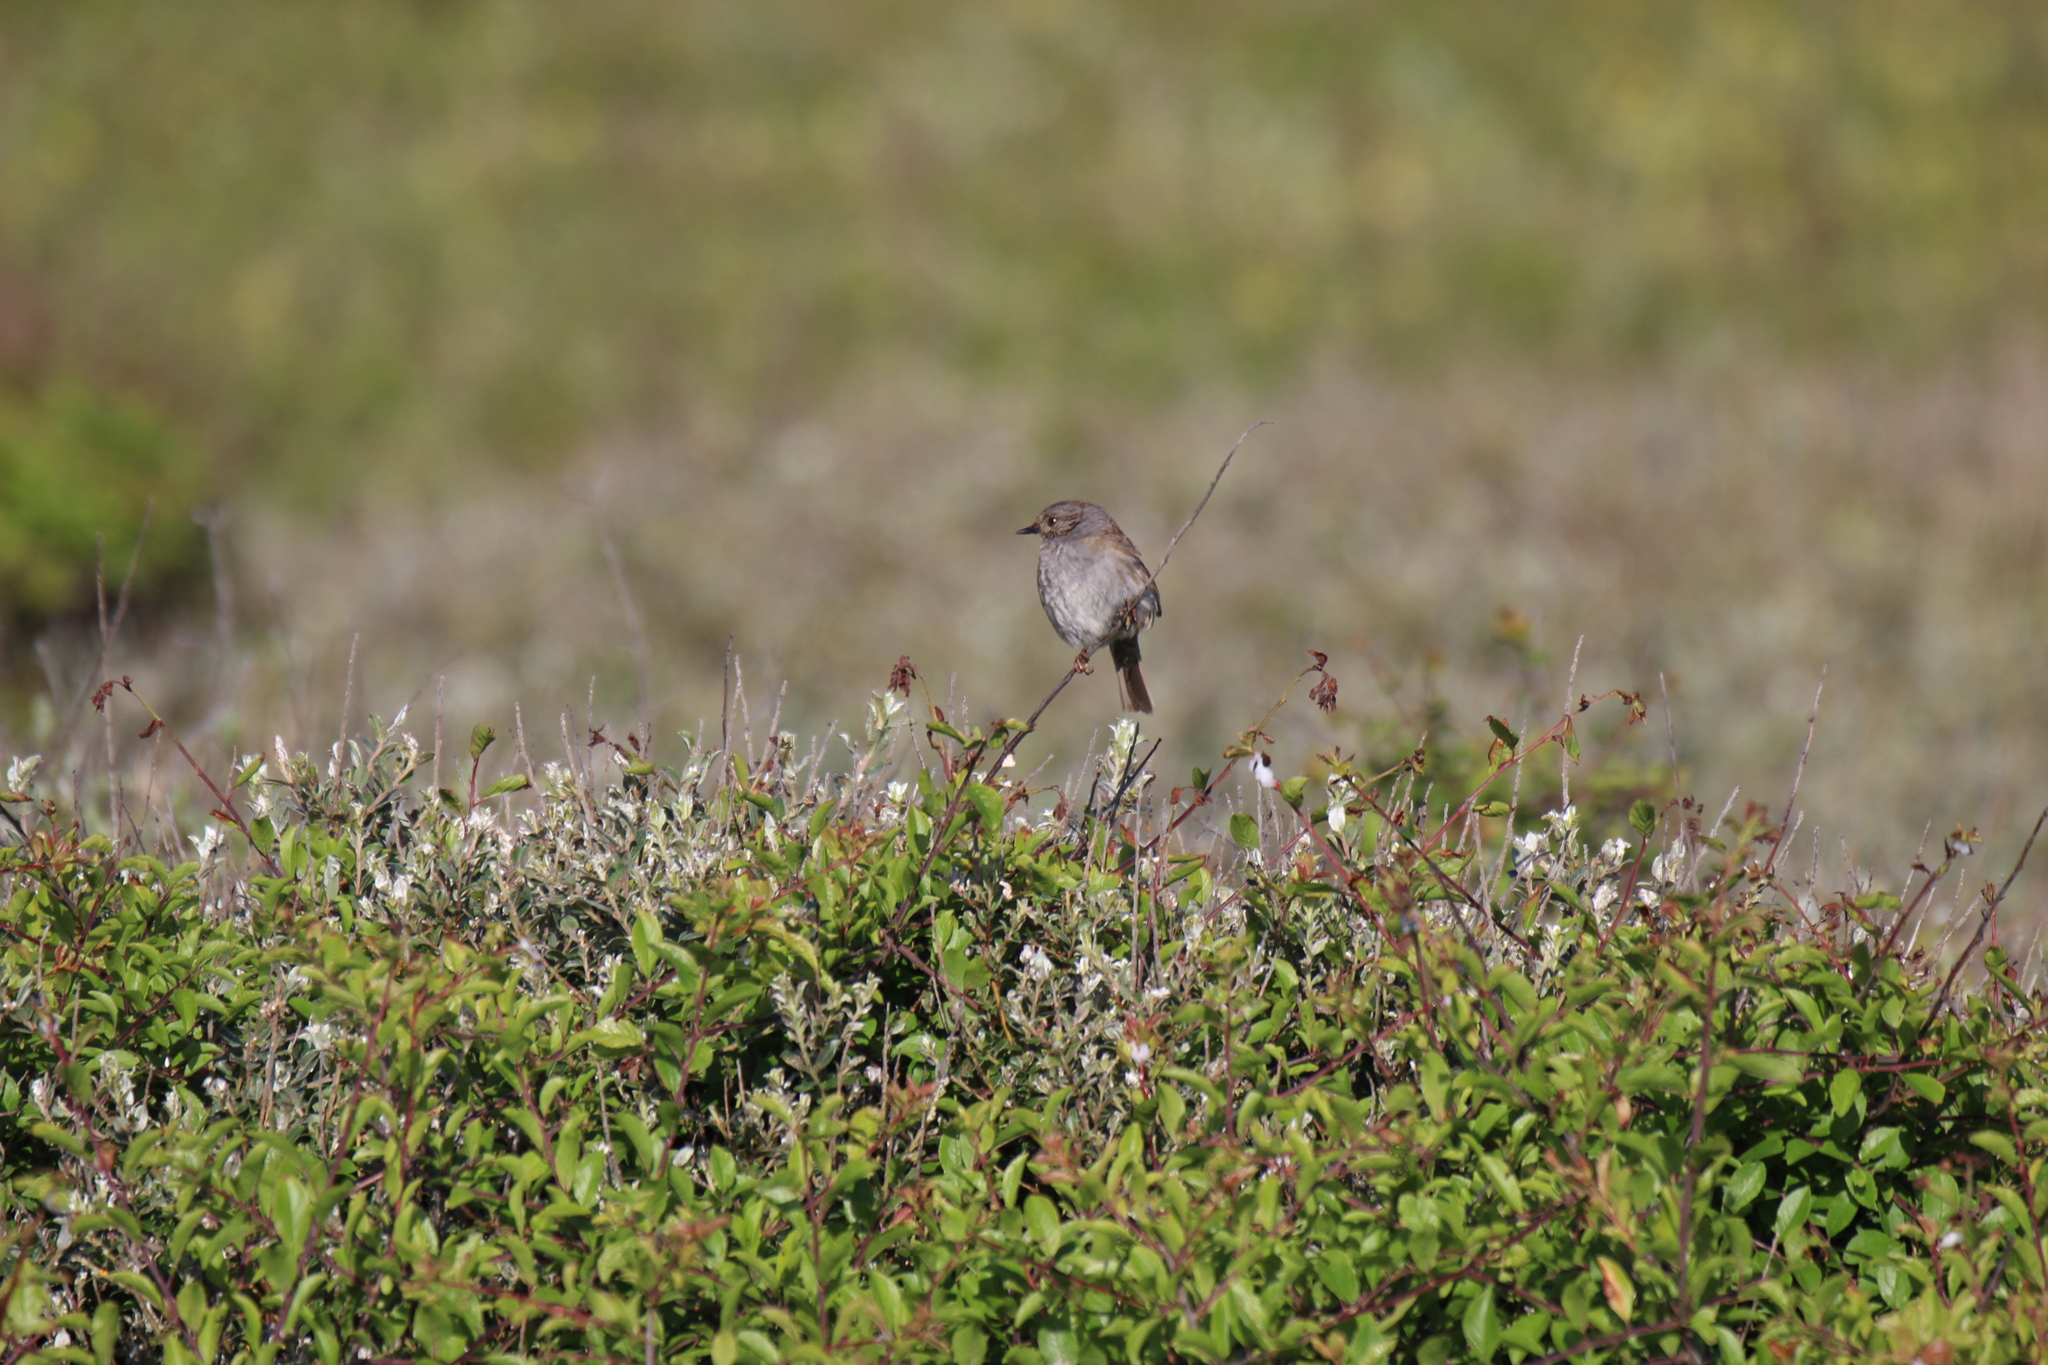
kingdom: Animalia
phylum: Chordata
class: Aves
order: Passeriformes
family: Prunellidae
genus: Prunella
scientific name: Prunella modularis
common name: Dunnock
